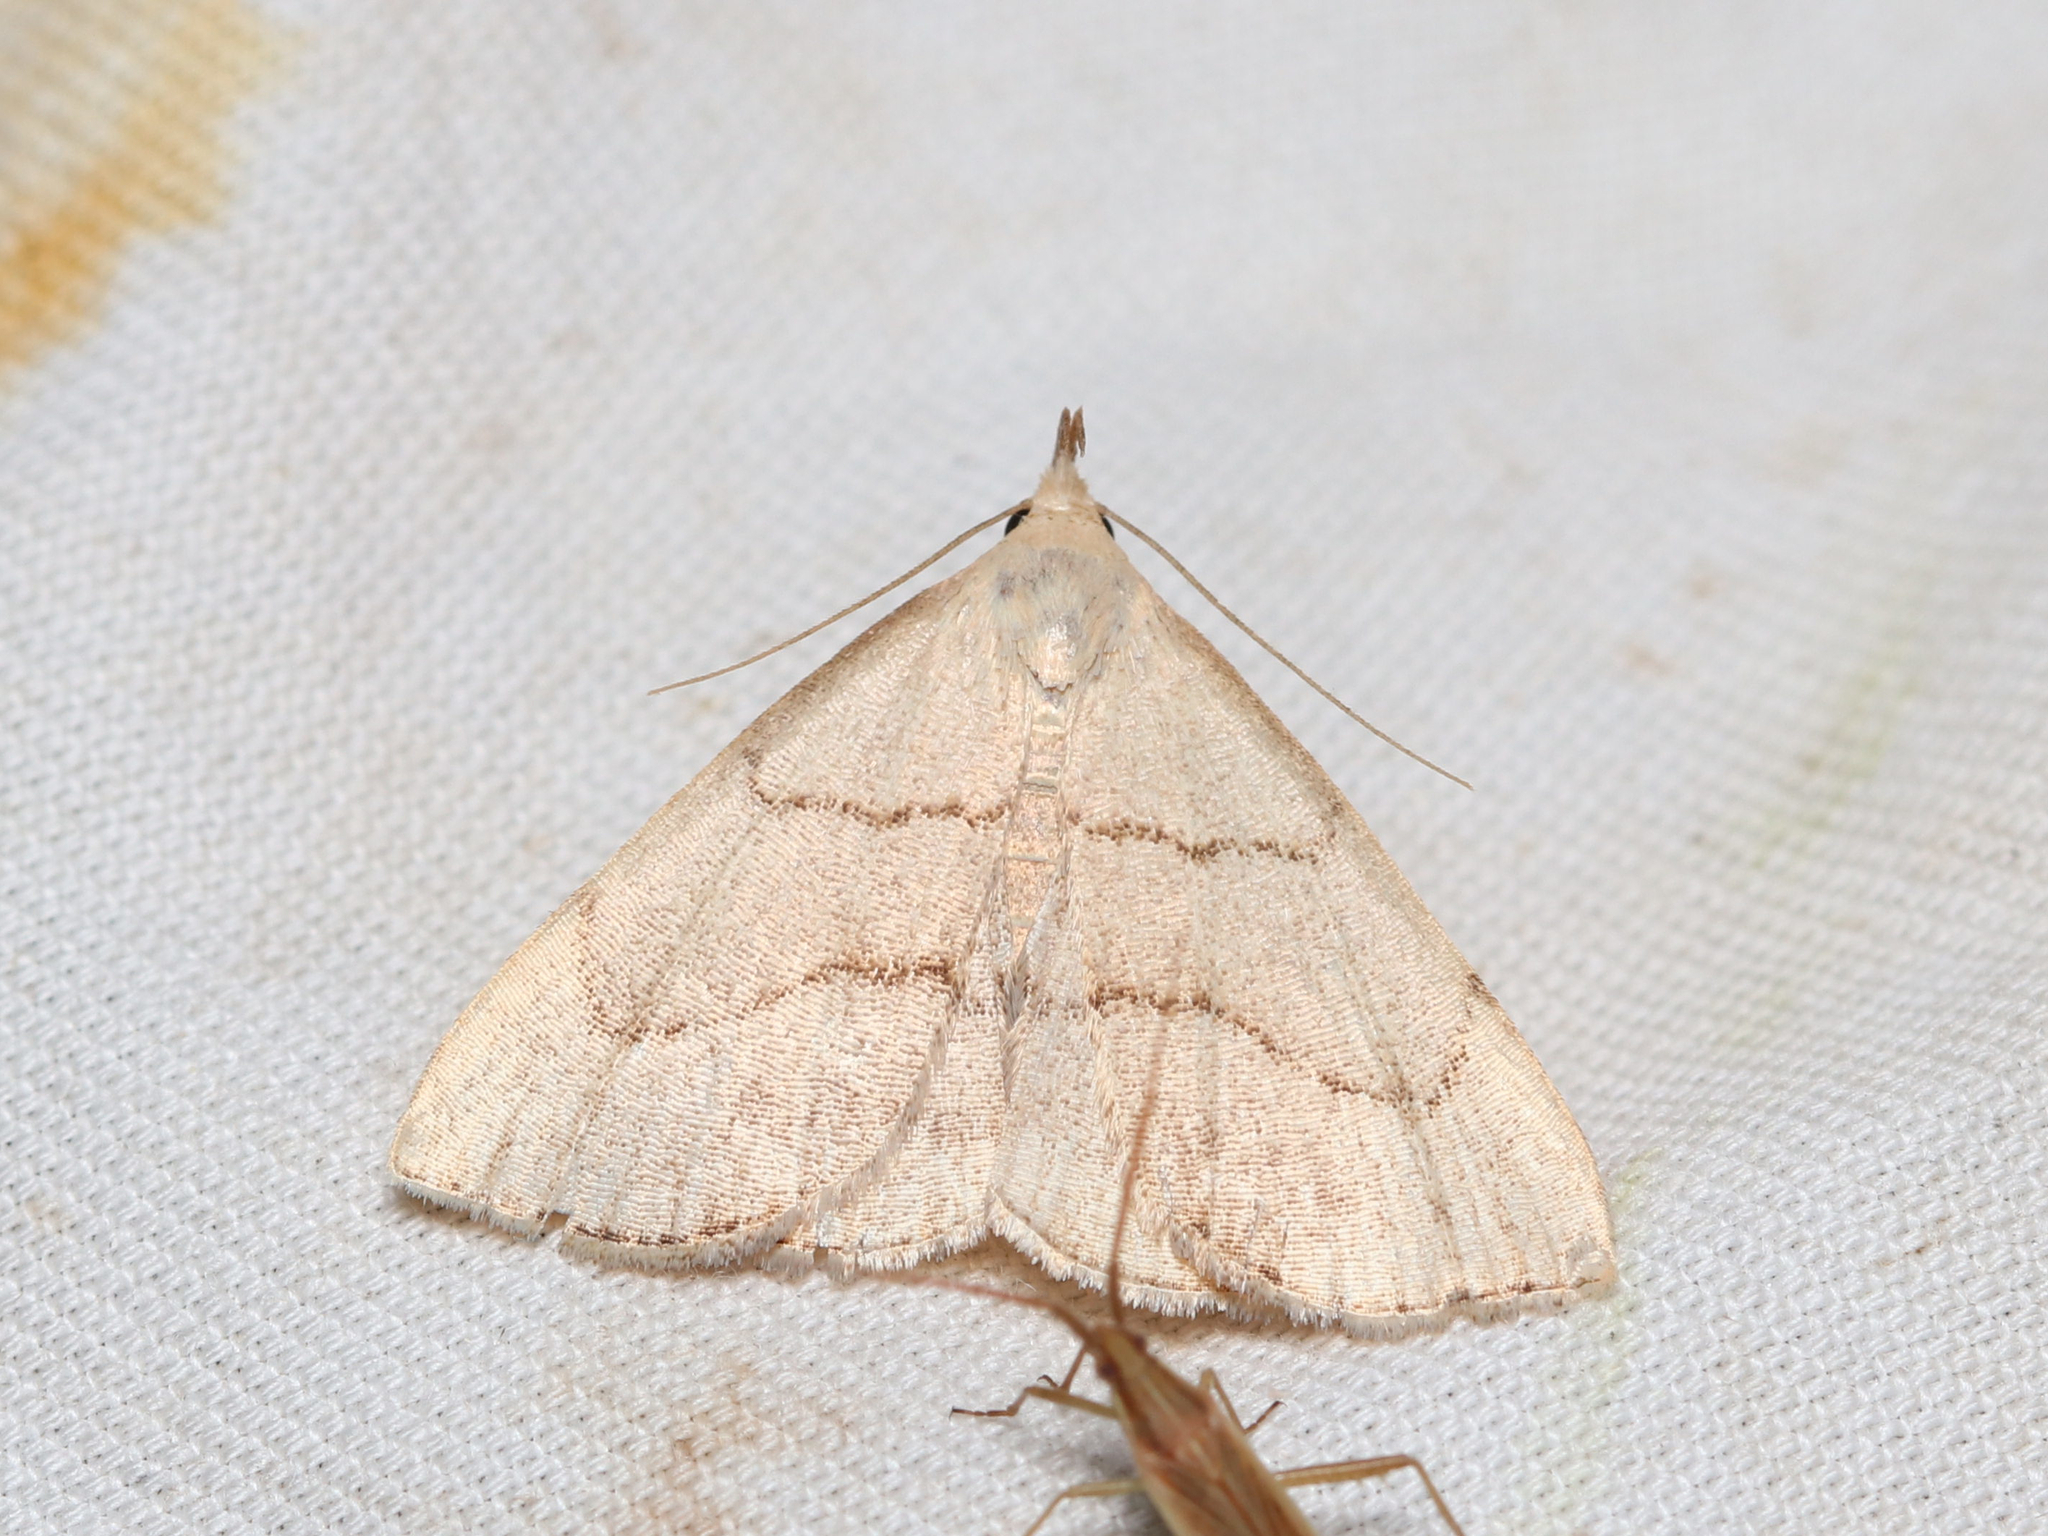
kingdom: Animalia
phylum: Arthropoda
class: Insecta
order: Lepidoptera
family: Erebidae
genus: Macrochilo
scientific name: Macrochilo litophora
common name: Brown-lined owlet
